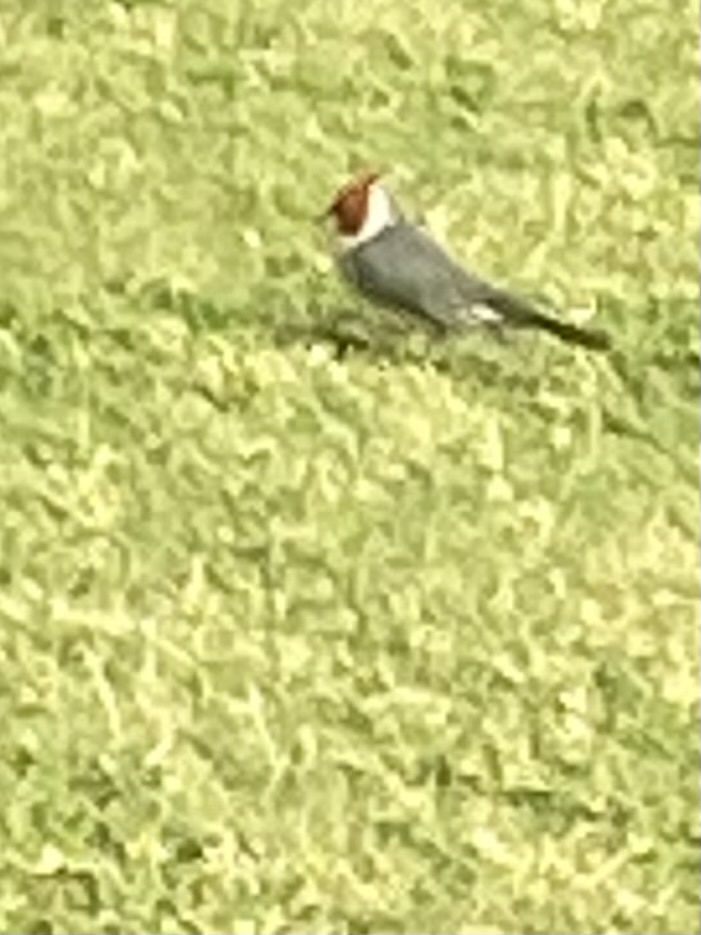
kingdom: Animalia
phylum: Chordata
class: Aves
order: Passeriformes
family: Thraupidae
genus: Paroaria
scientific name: Paroaria coronata
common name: Red-crested cardinal
